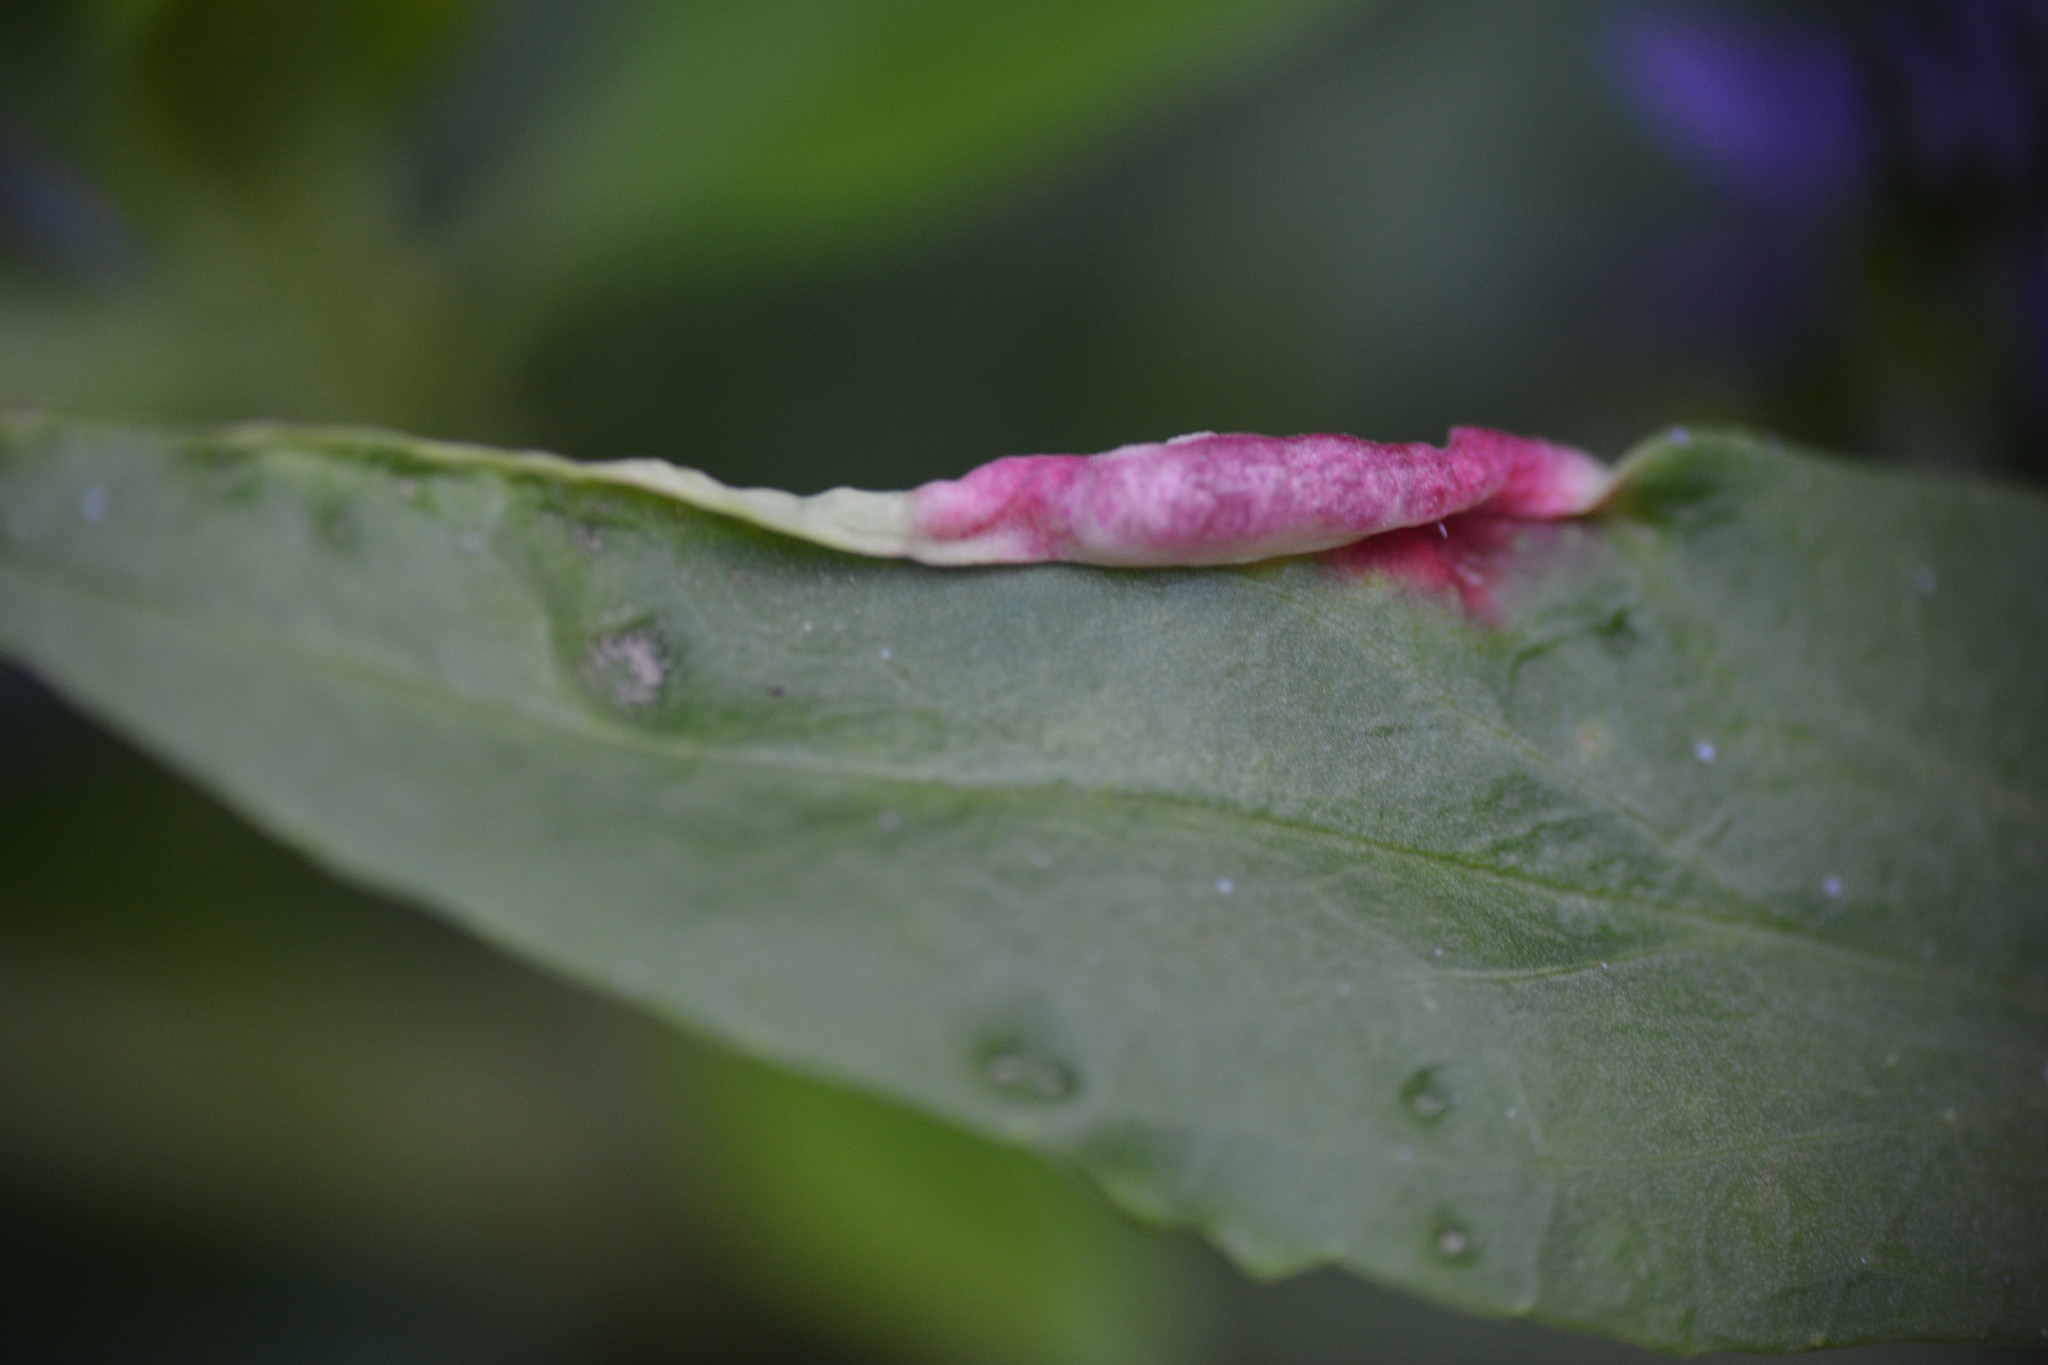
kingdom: Animalia
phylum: Arthropoda
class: Insecta
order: Hemiptera
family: Triozidae
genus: Trioza
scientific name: Trioza centranthi
